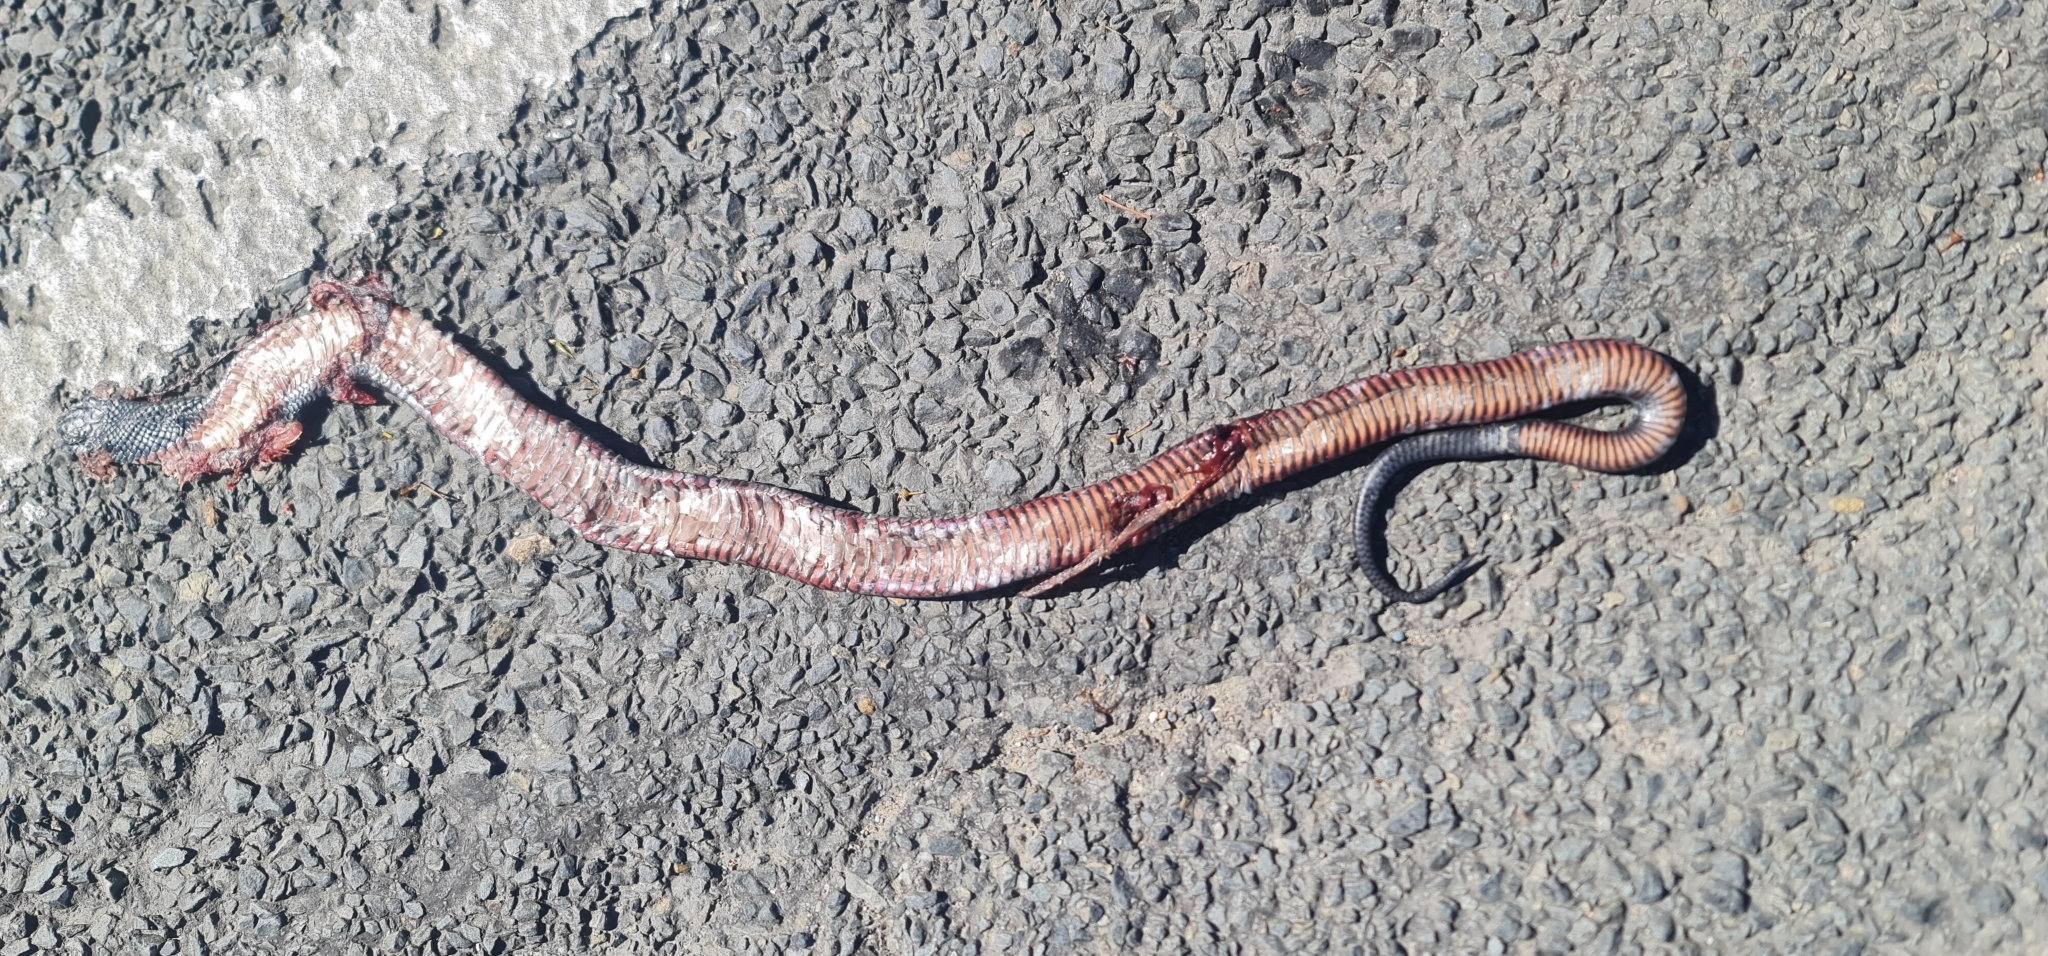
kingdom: Animalia
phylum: Chordata
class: Squamata
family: Elapidae
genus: Pseudechis
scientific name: Pseudechis porphyriacus
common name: Australian black snake
